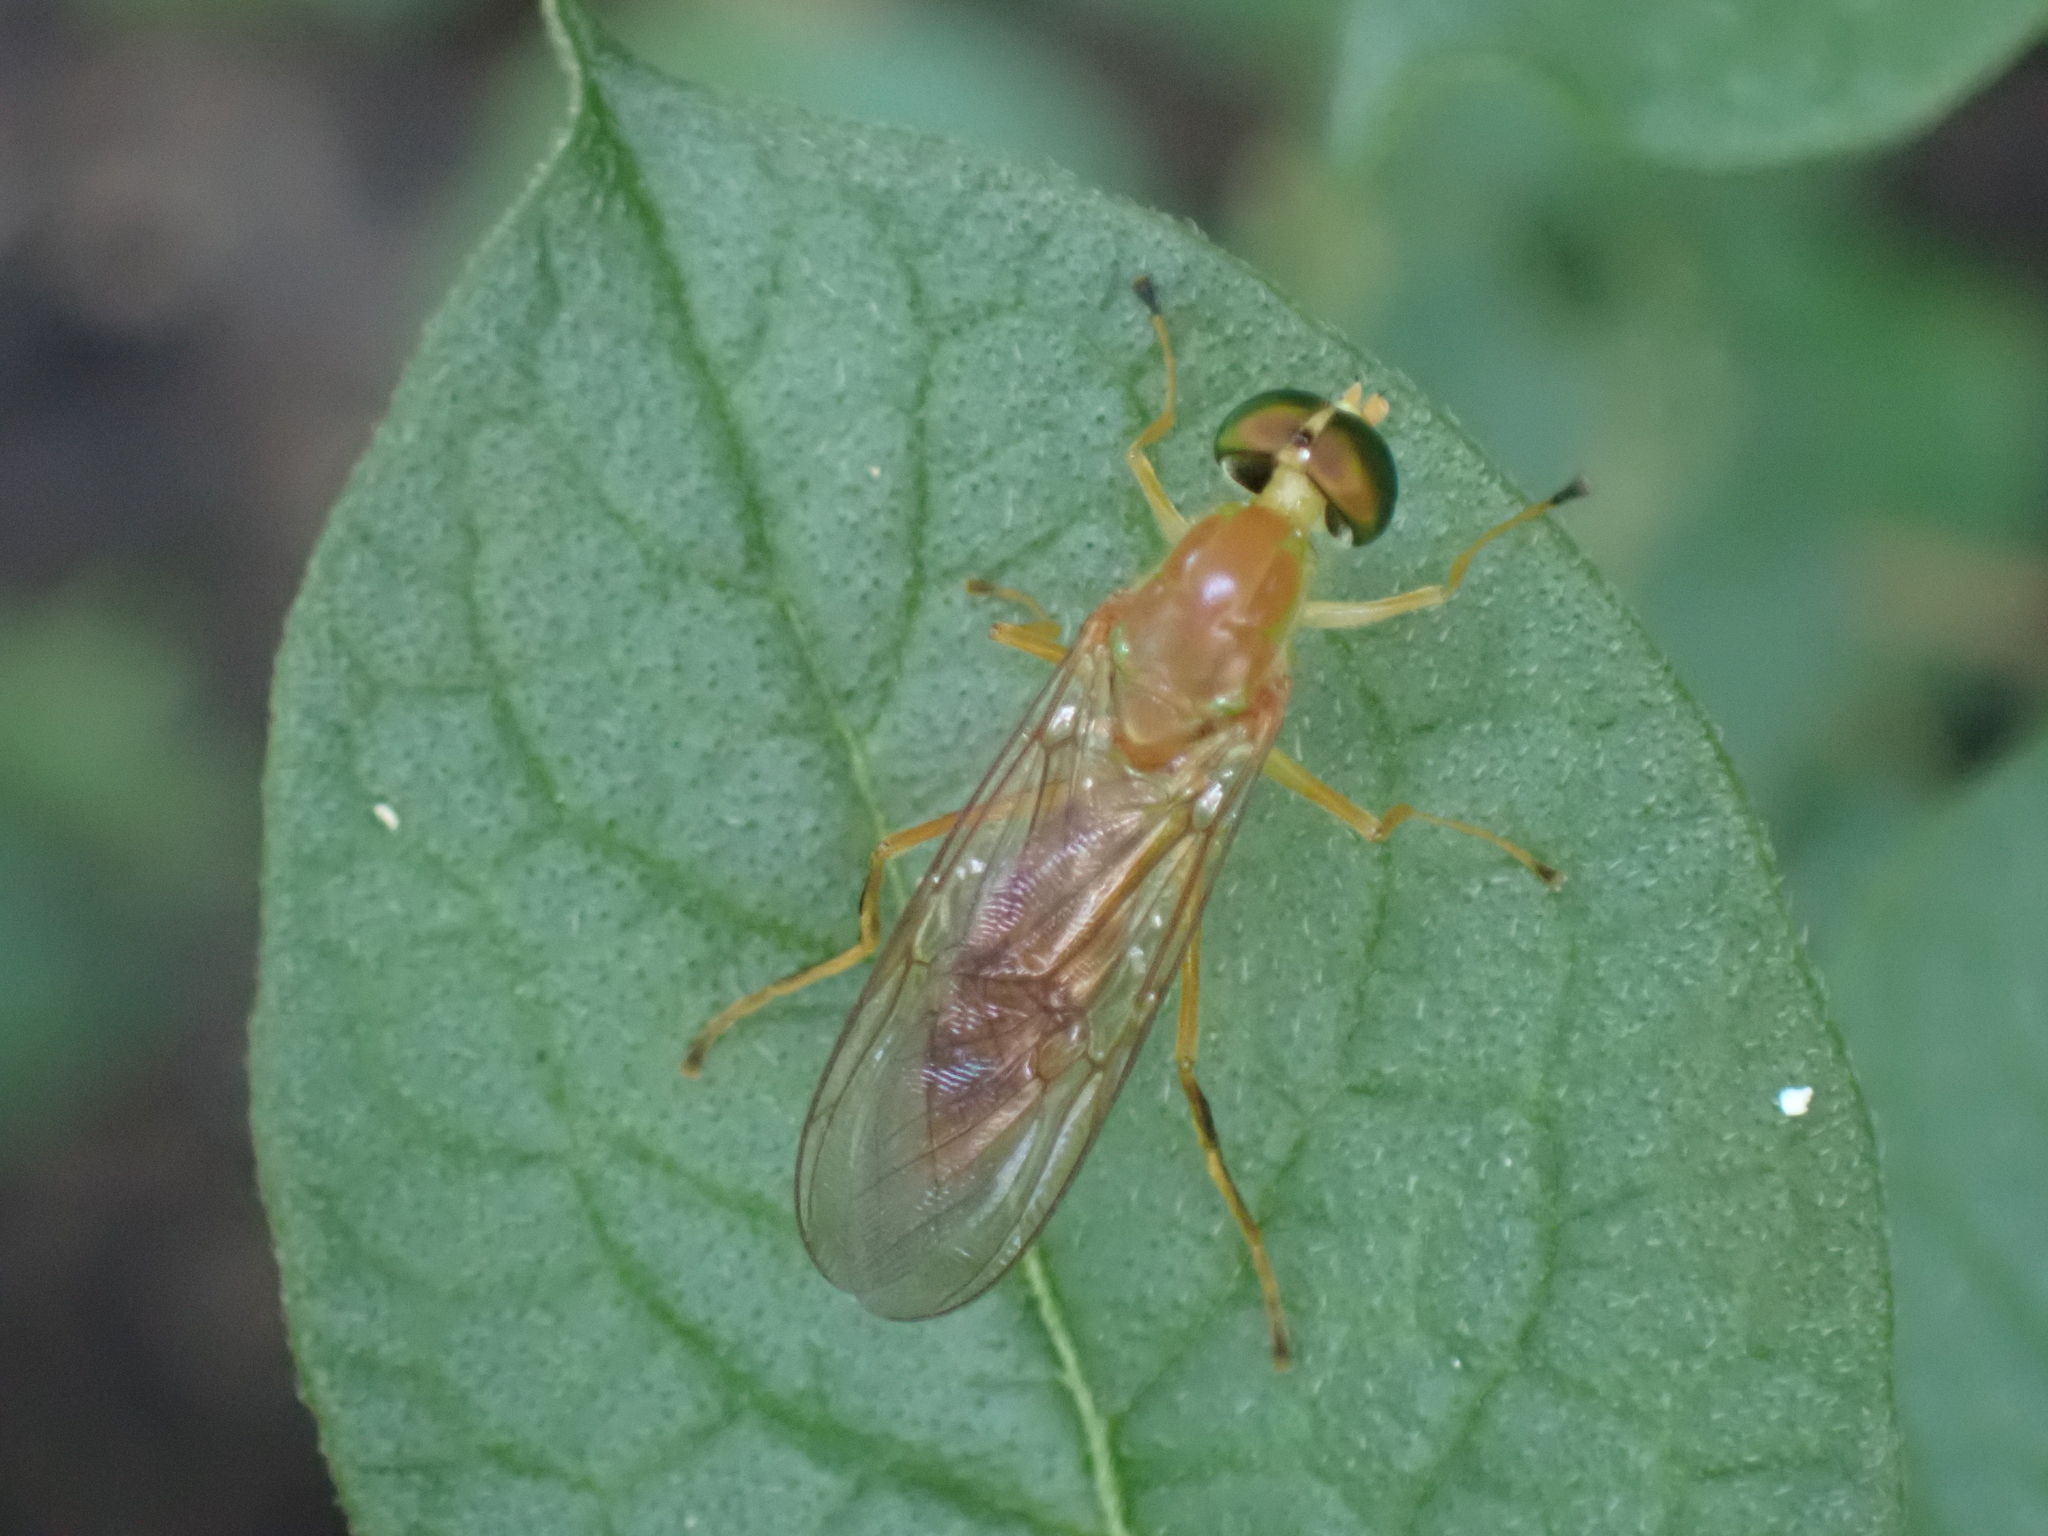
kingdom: Animalia
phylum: Arthropoda
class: Insecta
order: Diptera
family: Stratiomyidae
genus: Ptecticus
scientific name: Ptecticus trivittatus
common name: Compost fly
